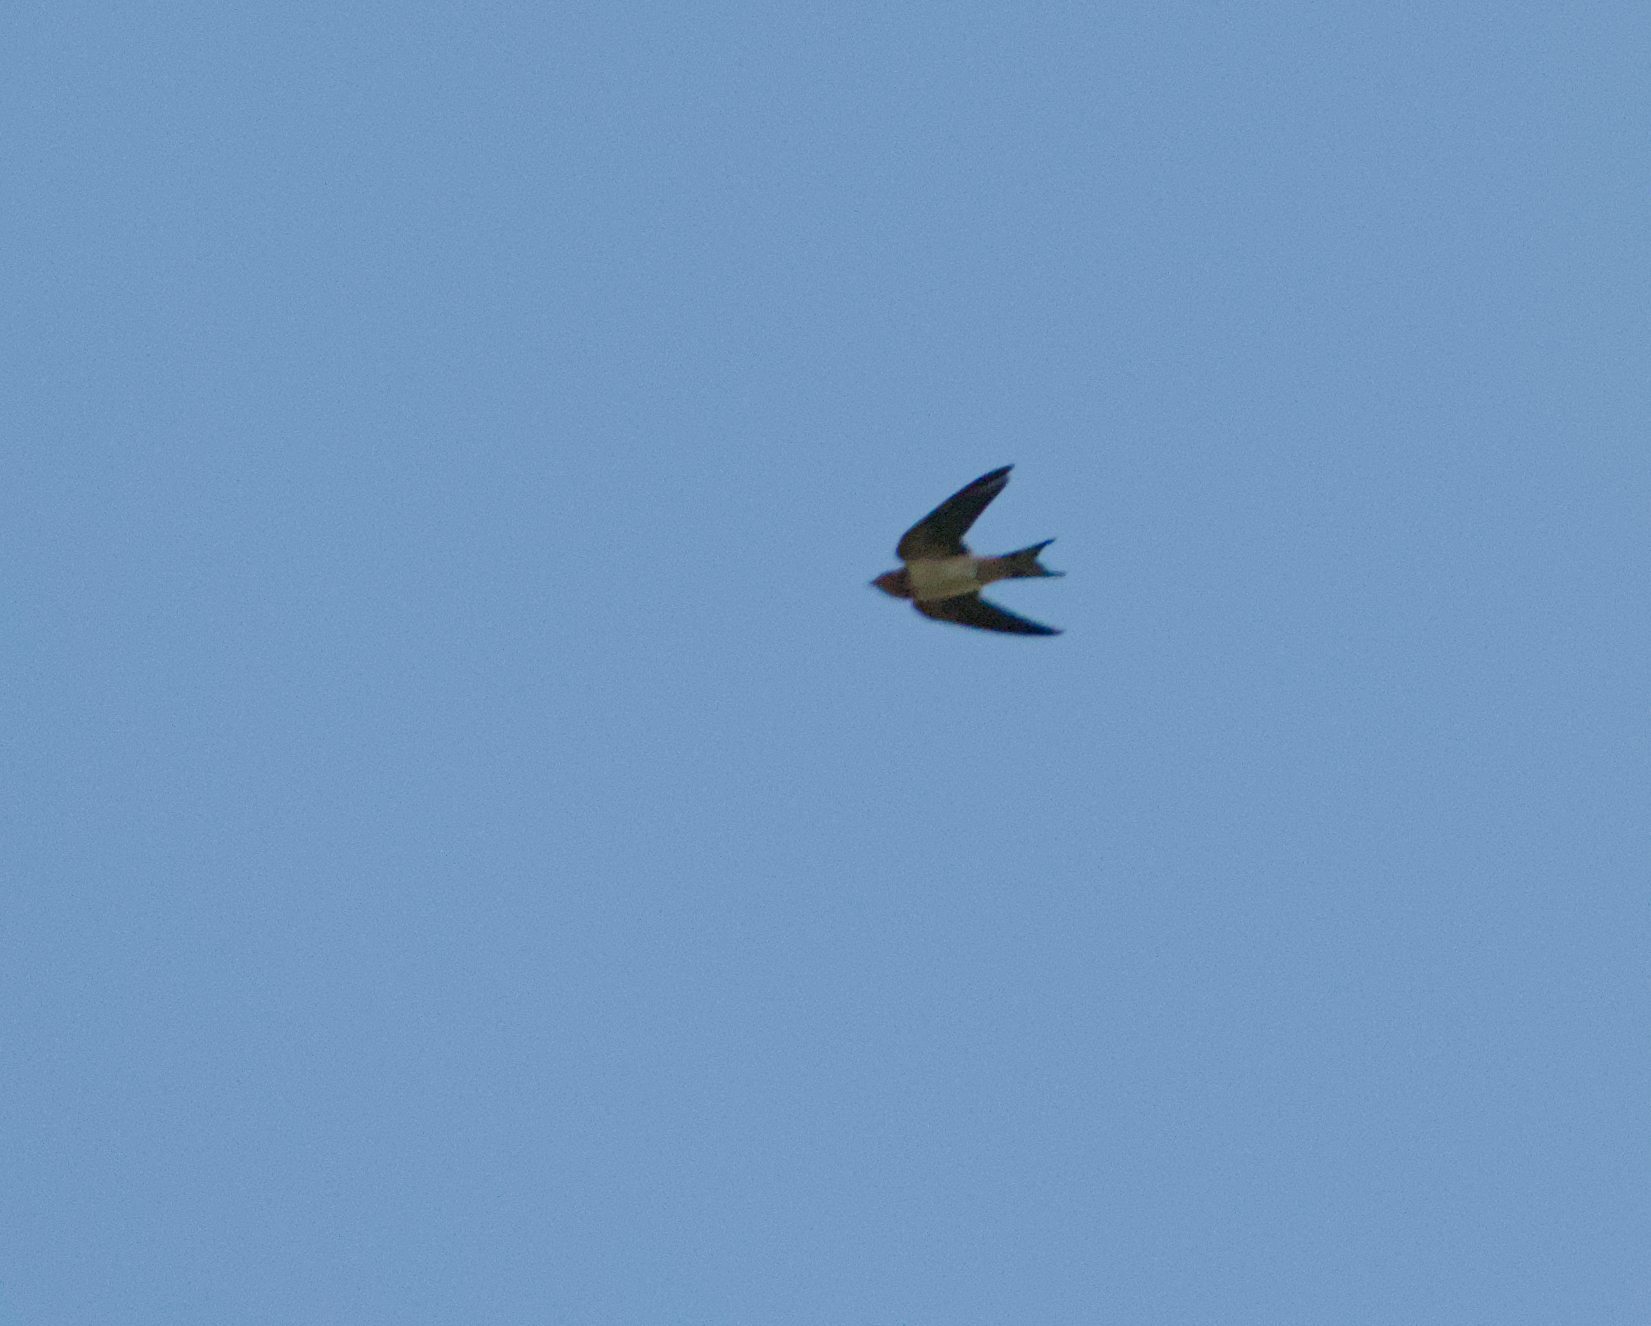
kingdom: Animalia
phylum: Chordata
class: Aves
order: Passeriformes
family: Hirundinidae
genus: Hirundo
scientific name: Hirundo rustica
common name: Barn swallow
